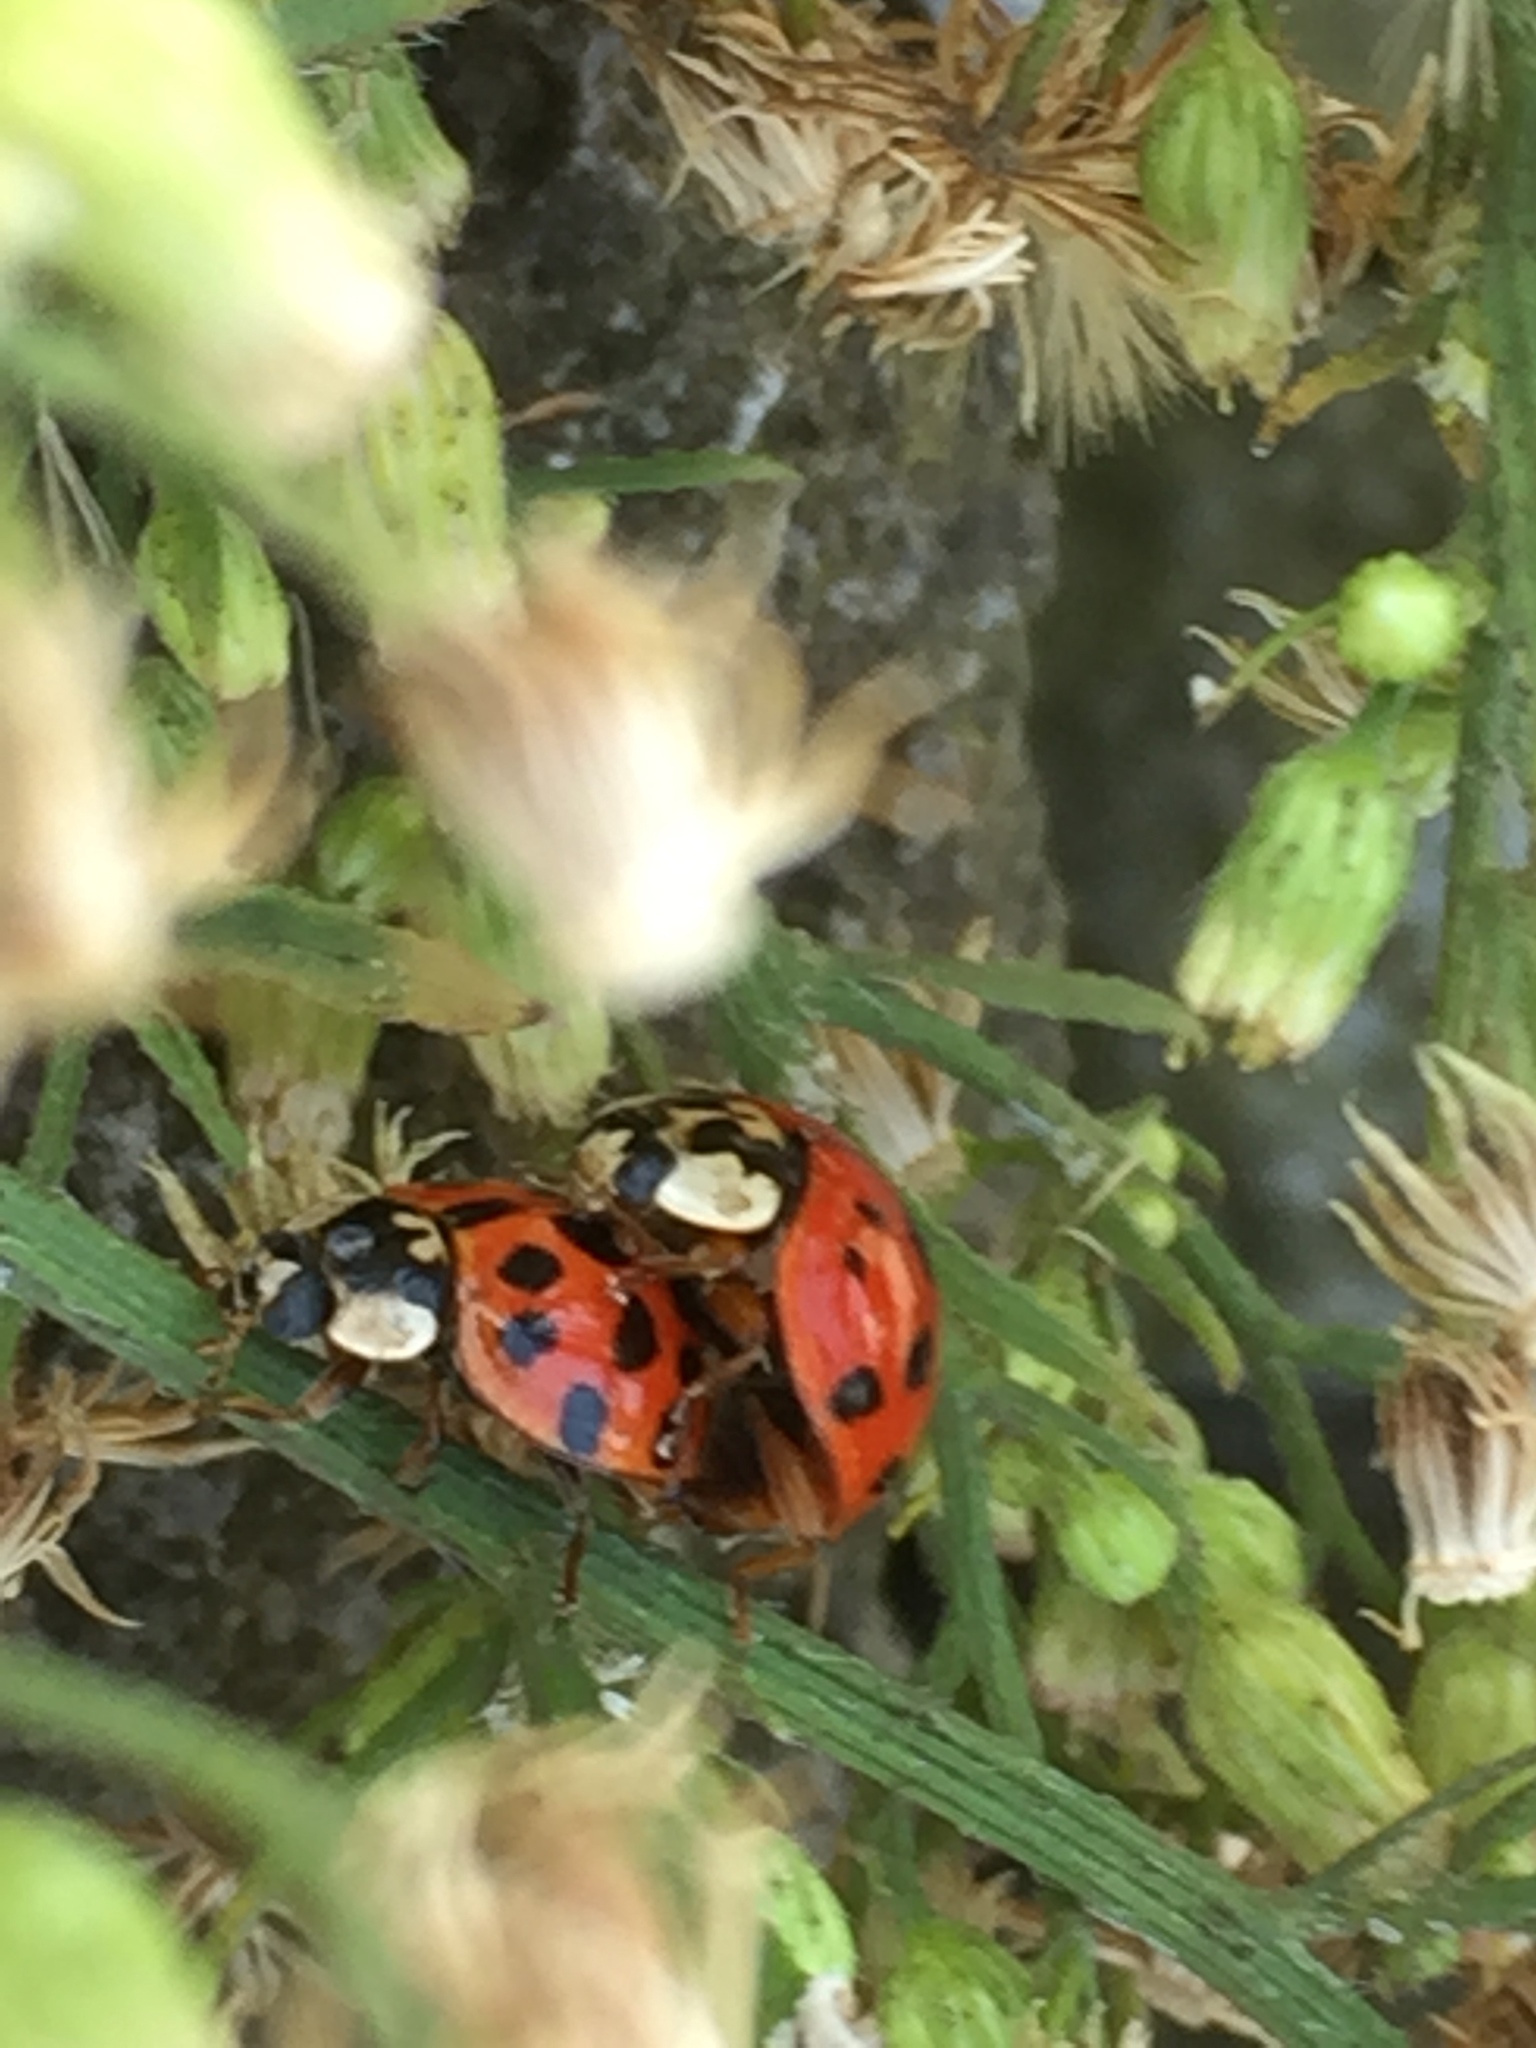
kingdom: Animalia
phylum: Arthropoda
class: Insecta
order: Coleoptera
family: Coccinellidae
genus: Harmonia
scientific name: Harmonia axyridis
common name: Harlequin ladybird
